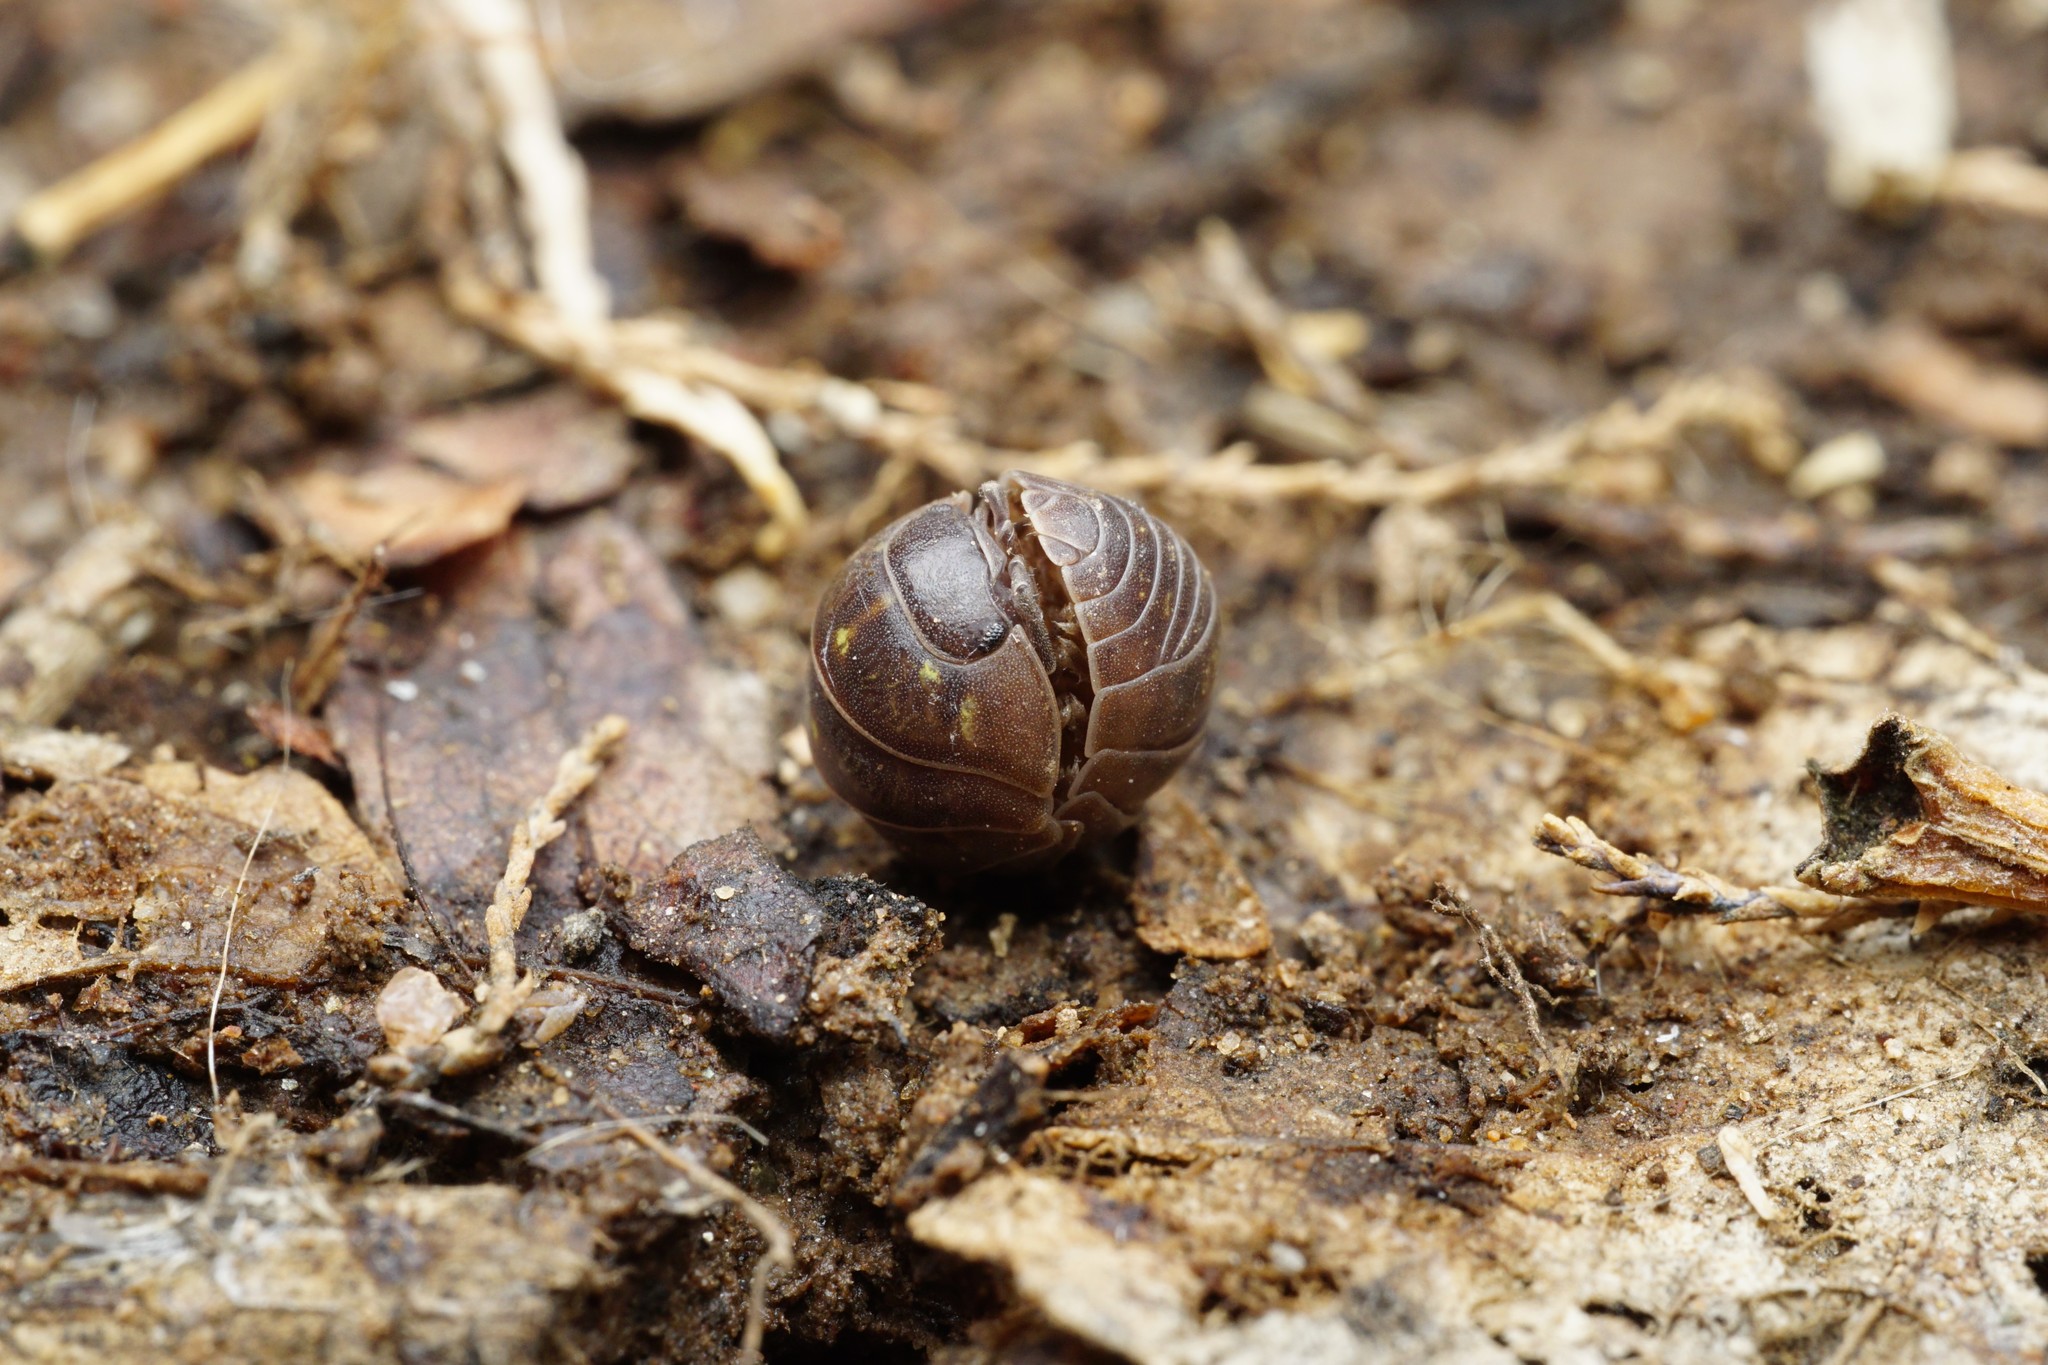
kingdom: Animalia
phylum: Arthropoda
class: Malacostraca
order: Isopoda
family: Armadillidiidae
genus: Armadillidium
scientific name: Armadillidium vulgare
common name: Common pill woodlouse
